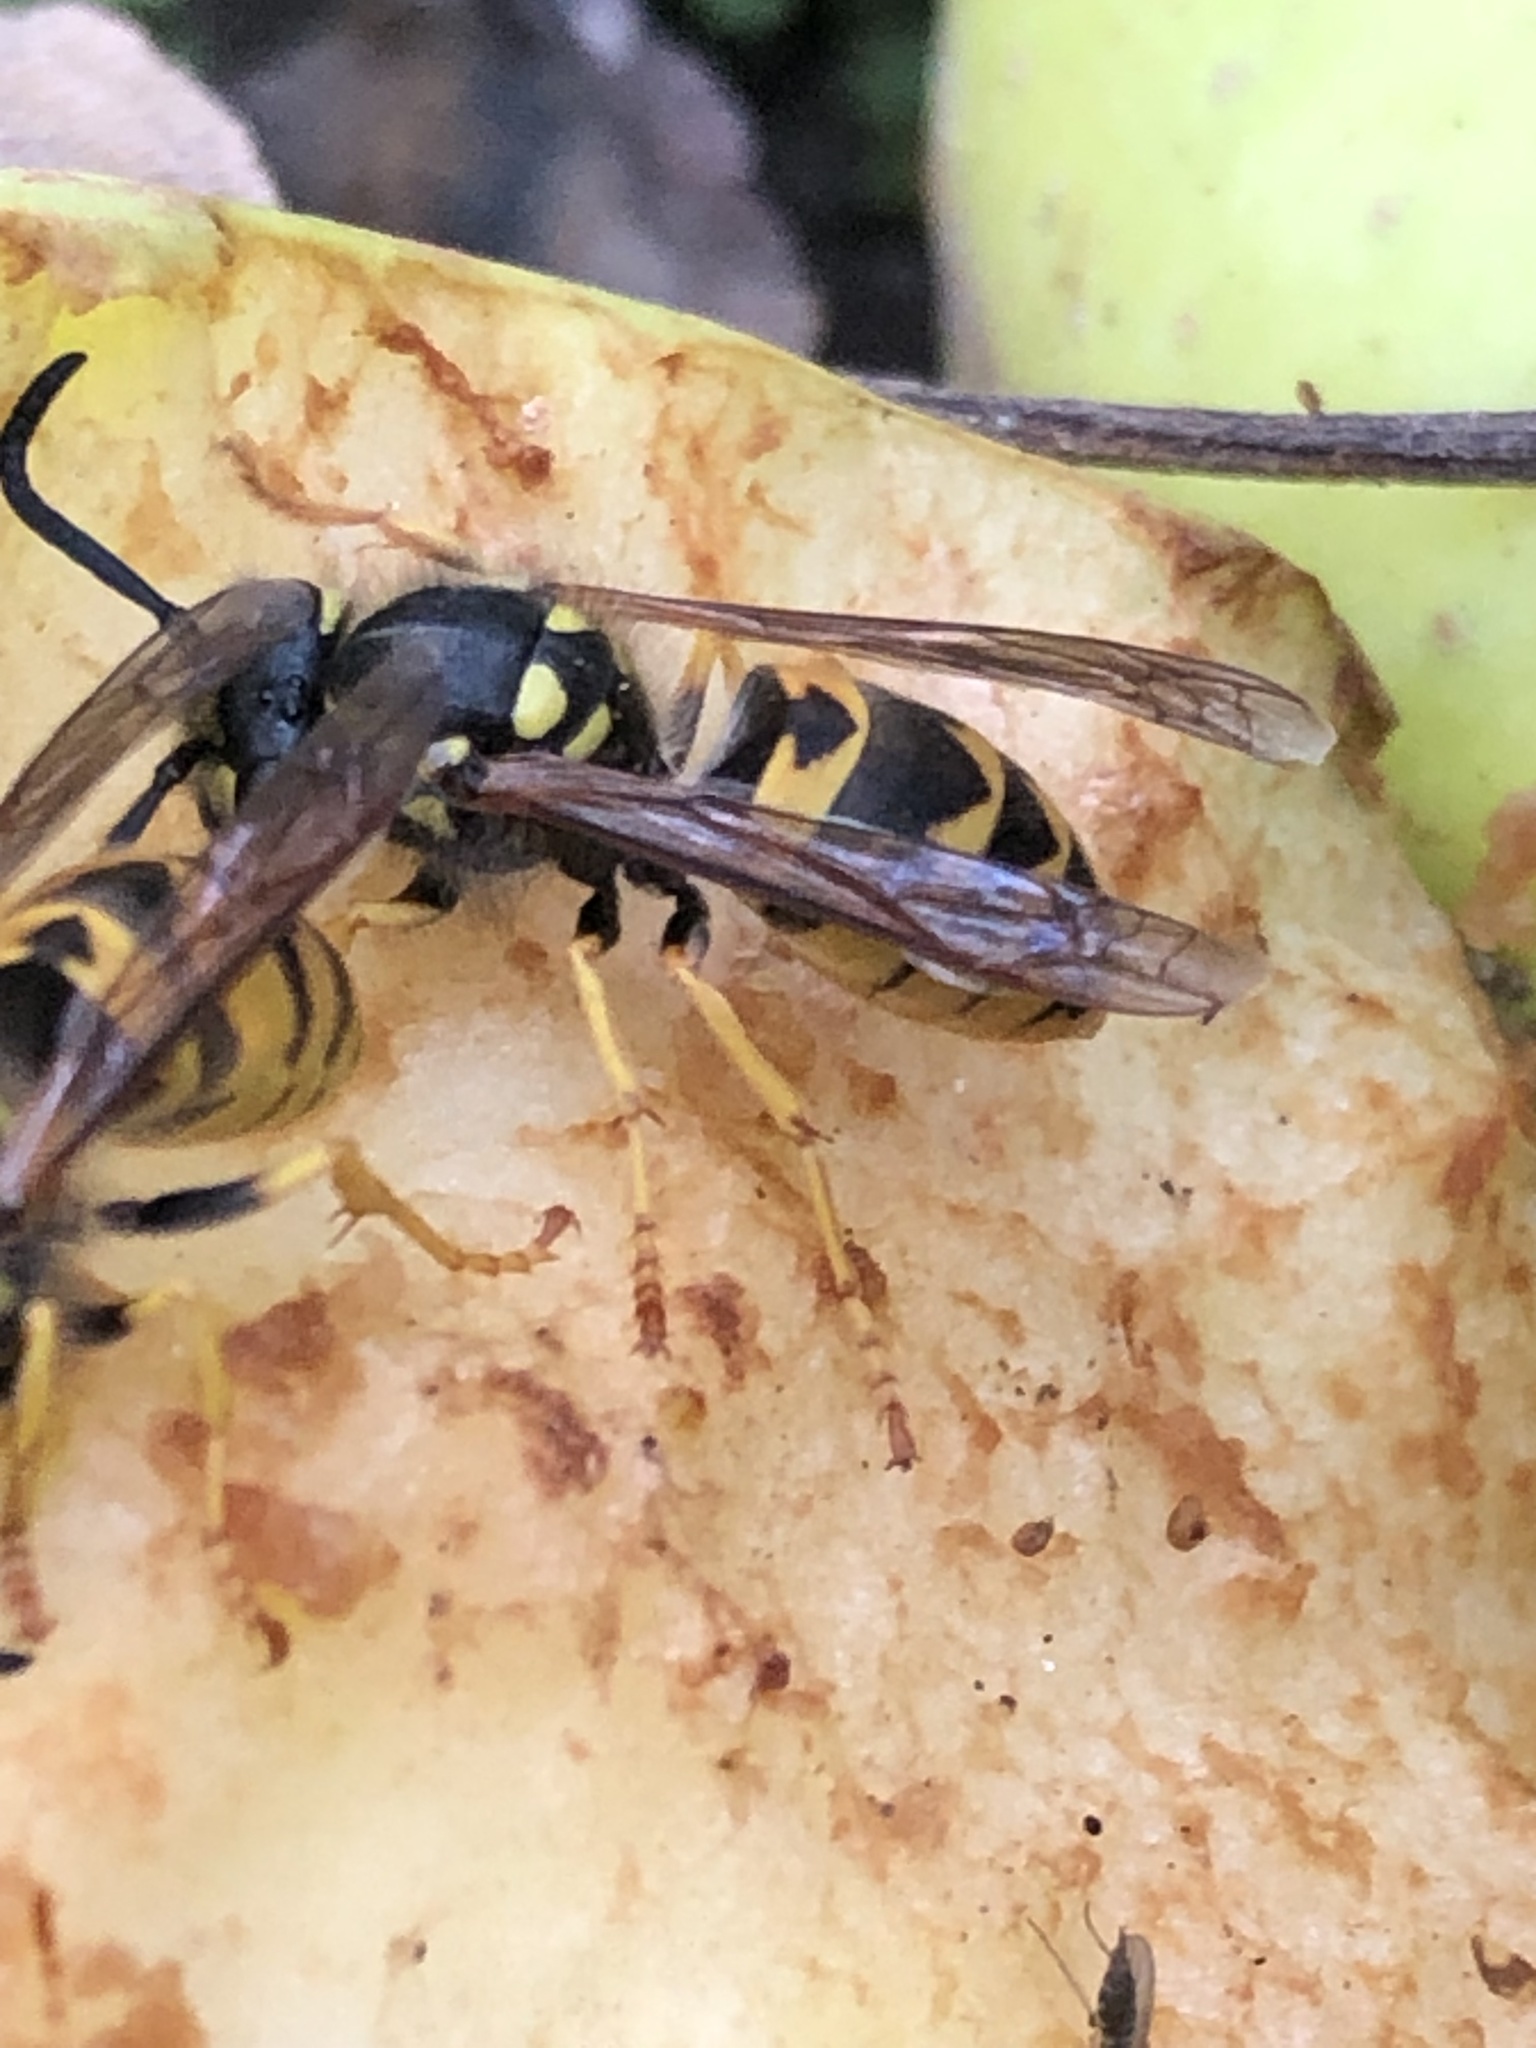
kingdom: Animalia
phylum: Arthropoda
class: Insecta
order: Hymenoptera
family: Vespidae
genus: Vespula
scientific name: Vespula germanica
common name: German wasp
